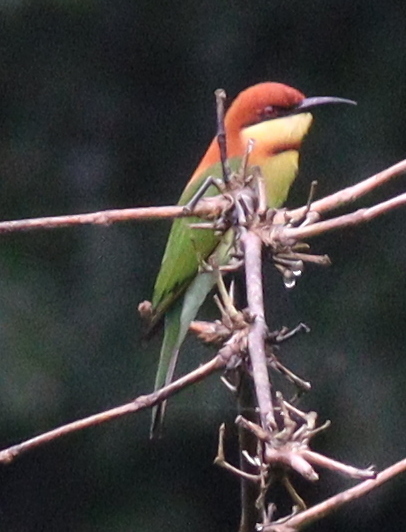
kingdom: Animalia
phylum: Chordata
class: Aves
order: Coraciiformes
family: Meropidae
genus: Merops
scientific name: Merops leschenaulti
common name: Chestnut-headed bee-eater
